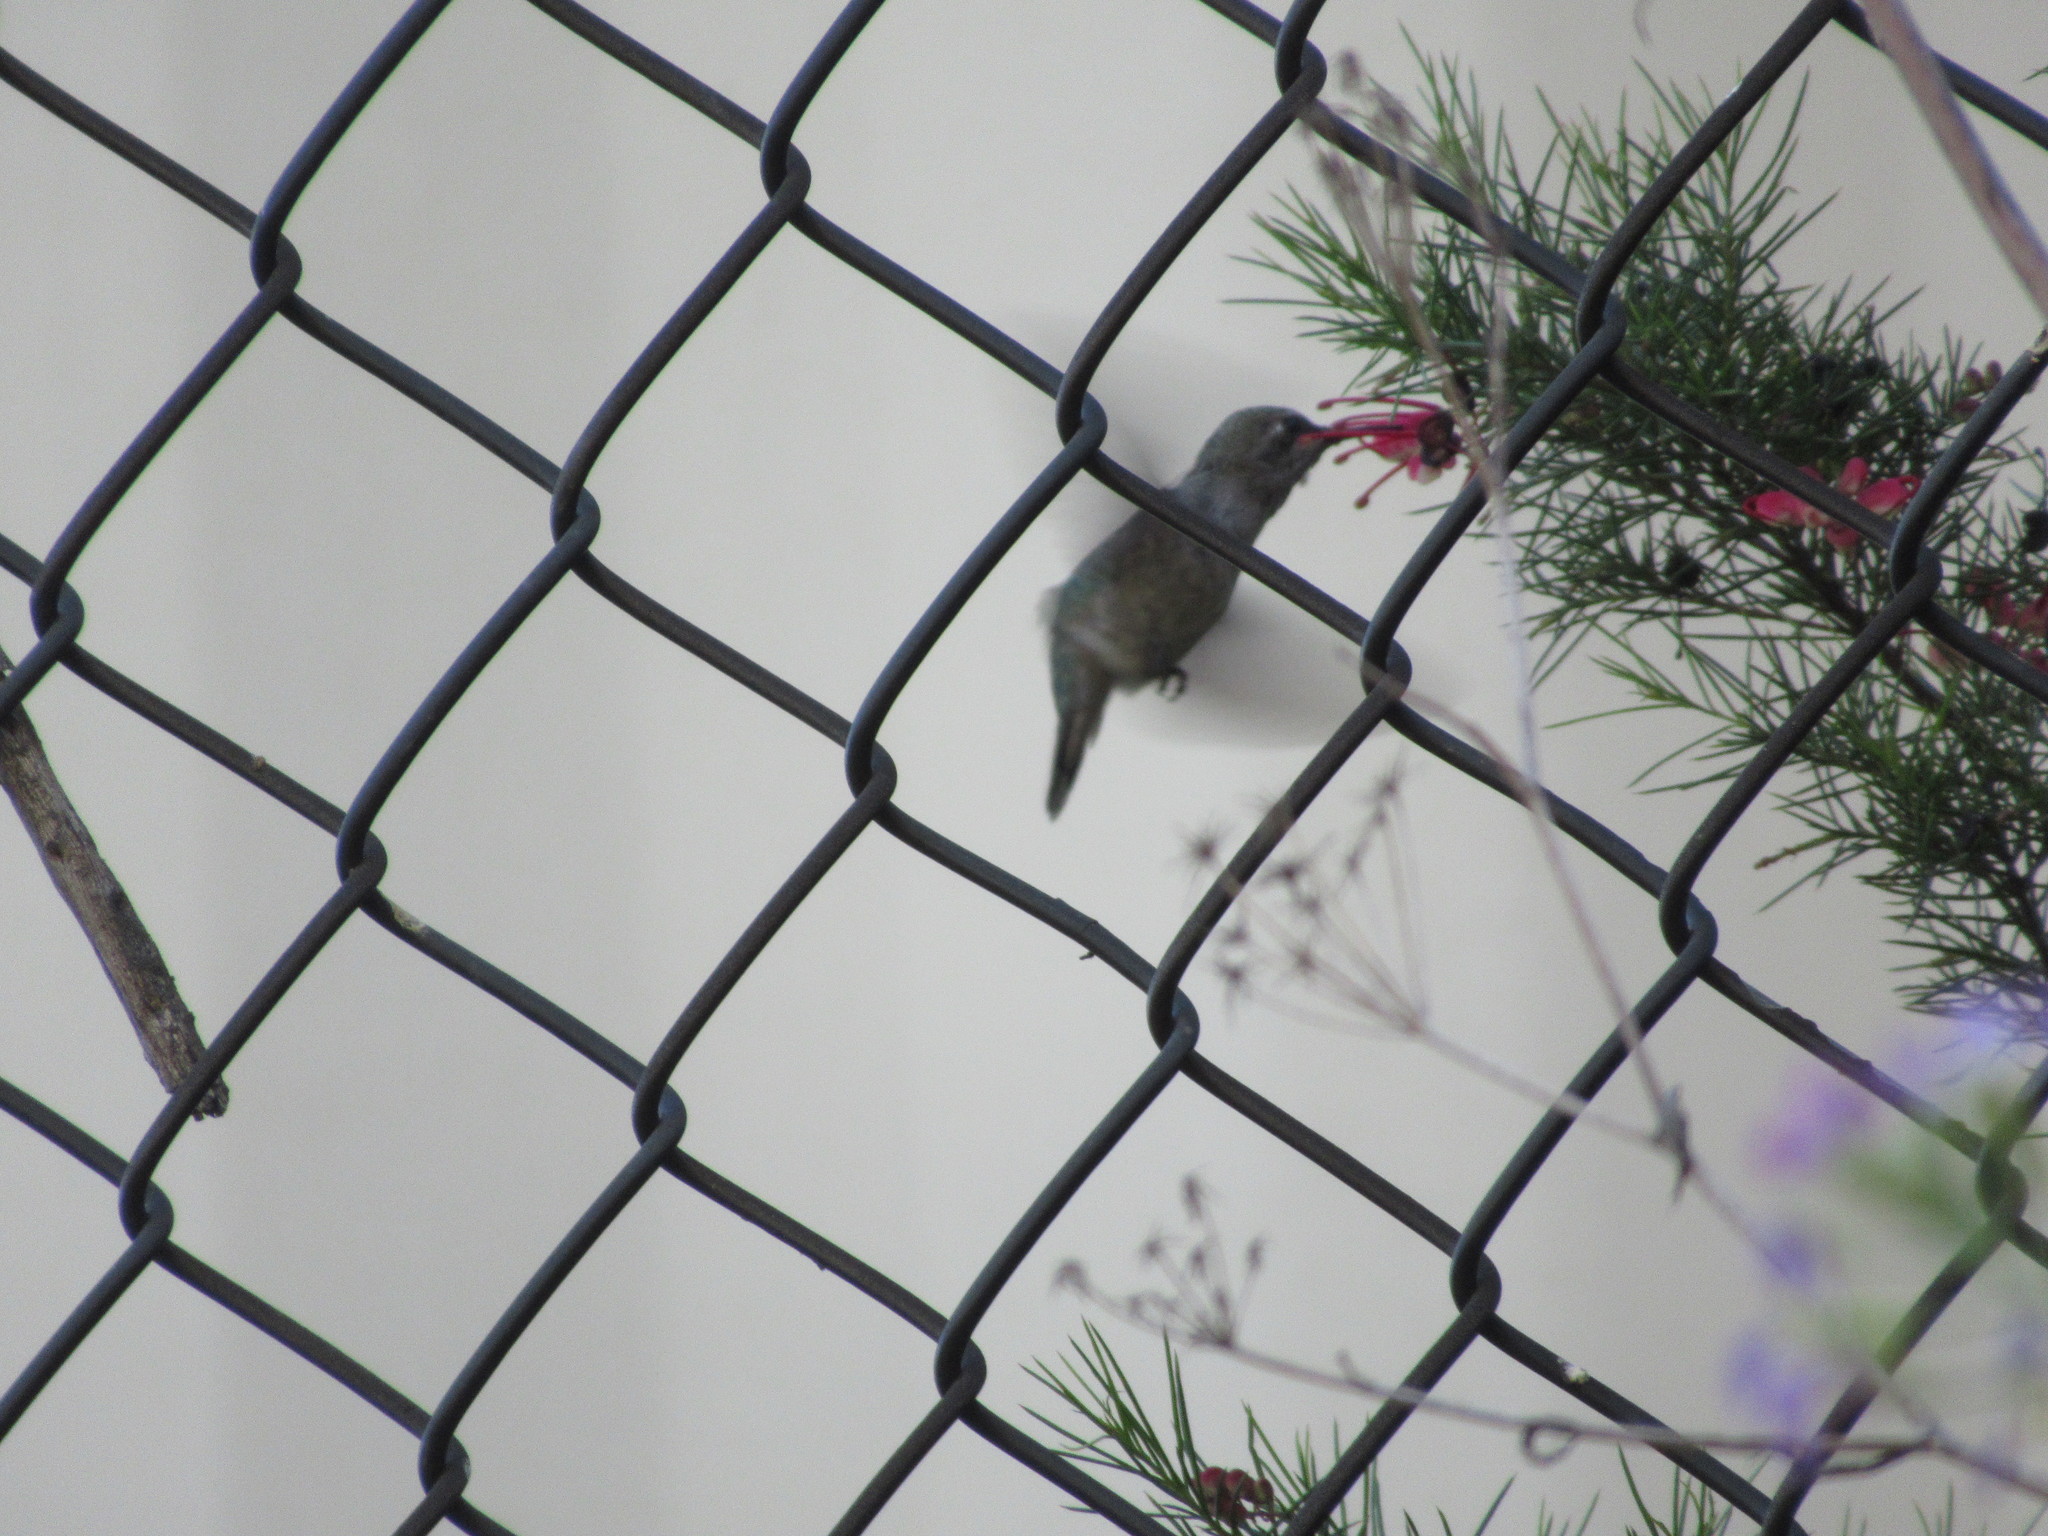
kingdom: Animalia
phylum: Chordata
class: Aves
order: Apodiformes
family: Trochilidae
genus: Calypte
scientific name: Calypte anna
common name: Anna's hummingbird
